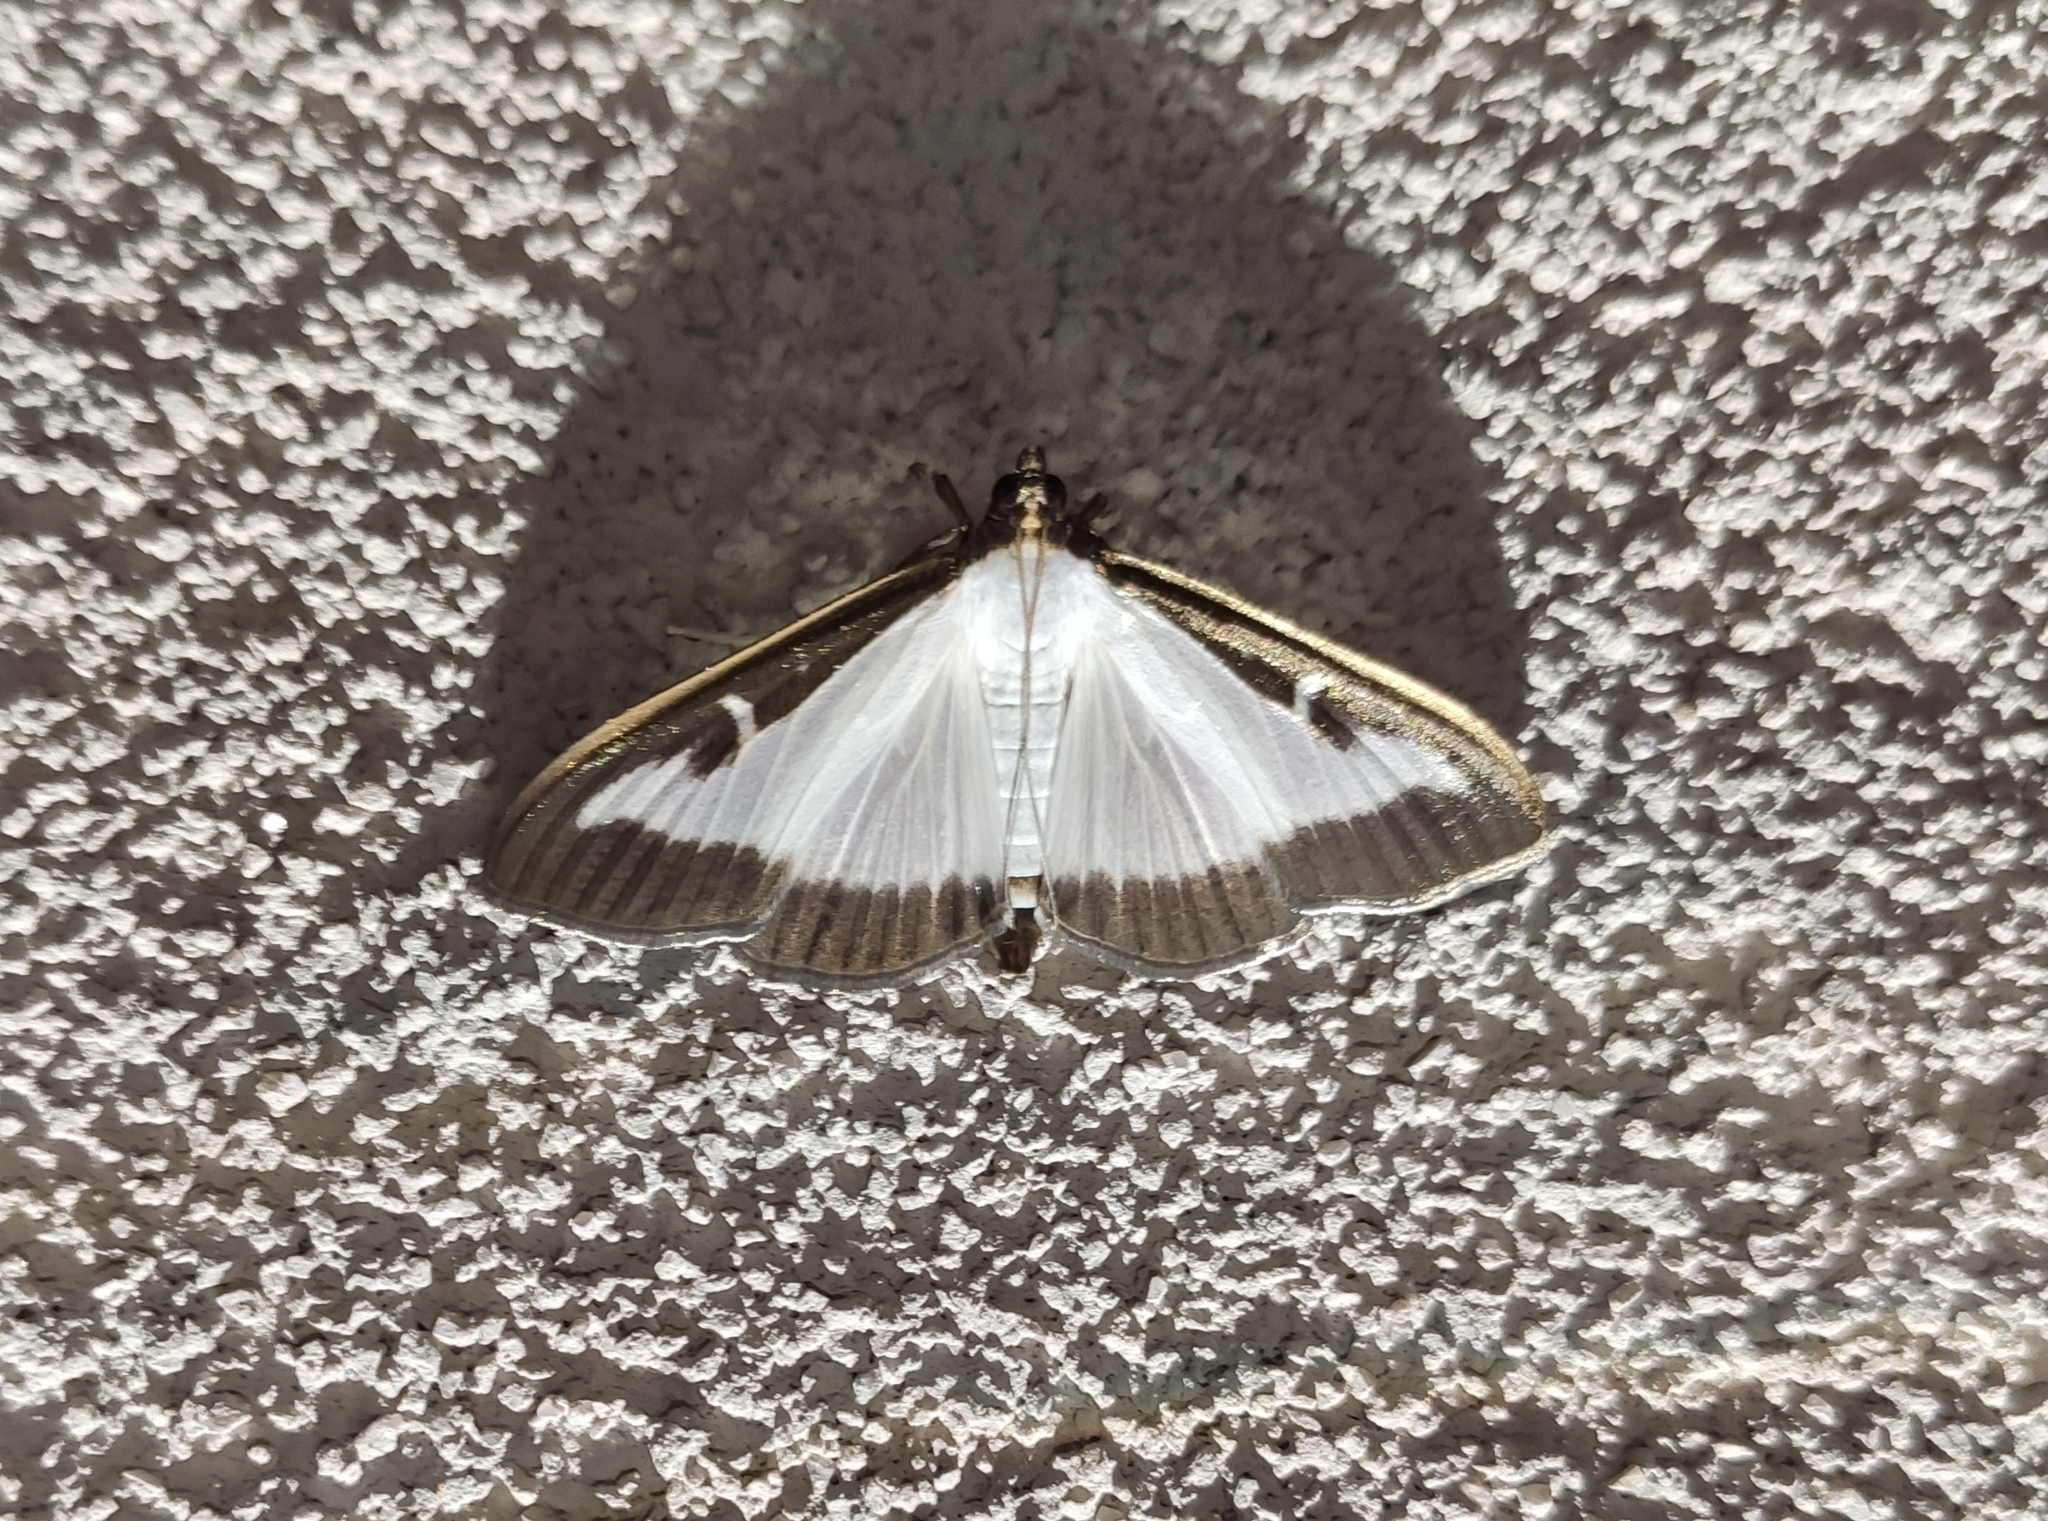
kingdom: Animalia
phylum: Arthropoda
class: Insecta
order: Lepidoptera
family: Crambidae
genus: Cydalima
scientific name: Cydalima perspectalis
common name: Box tree moth
